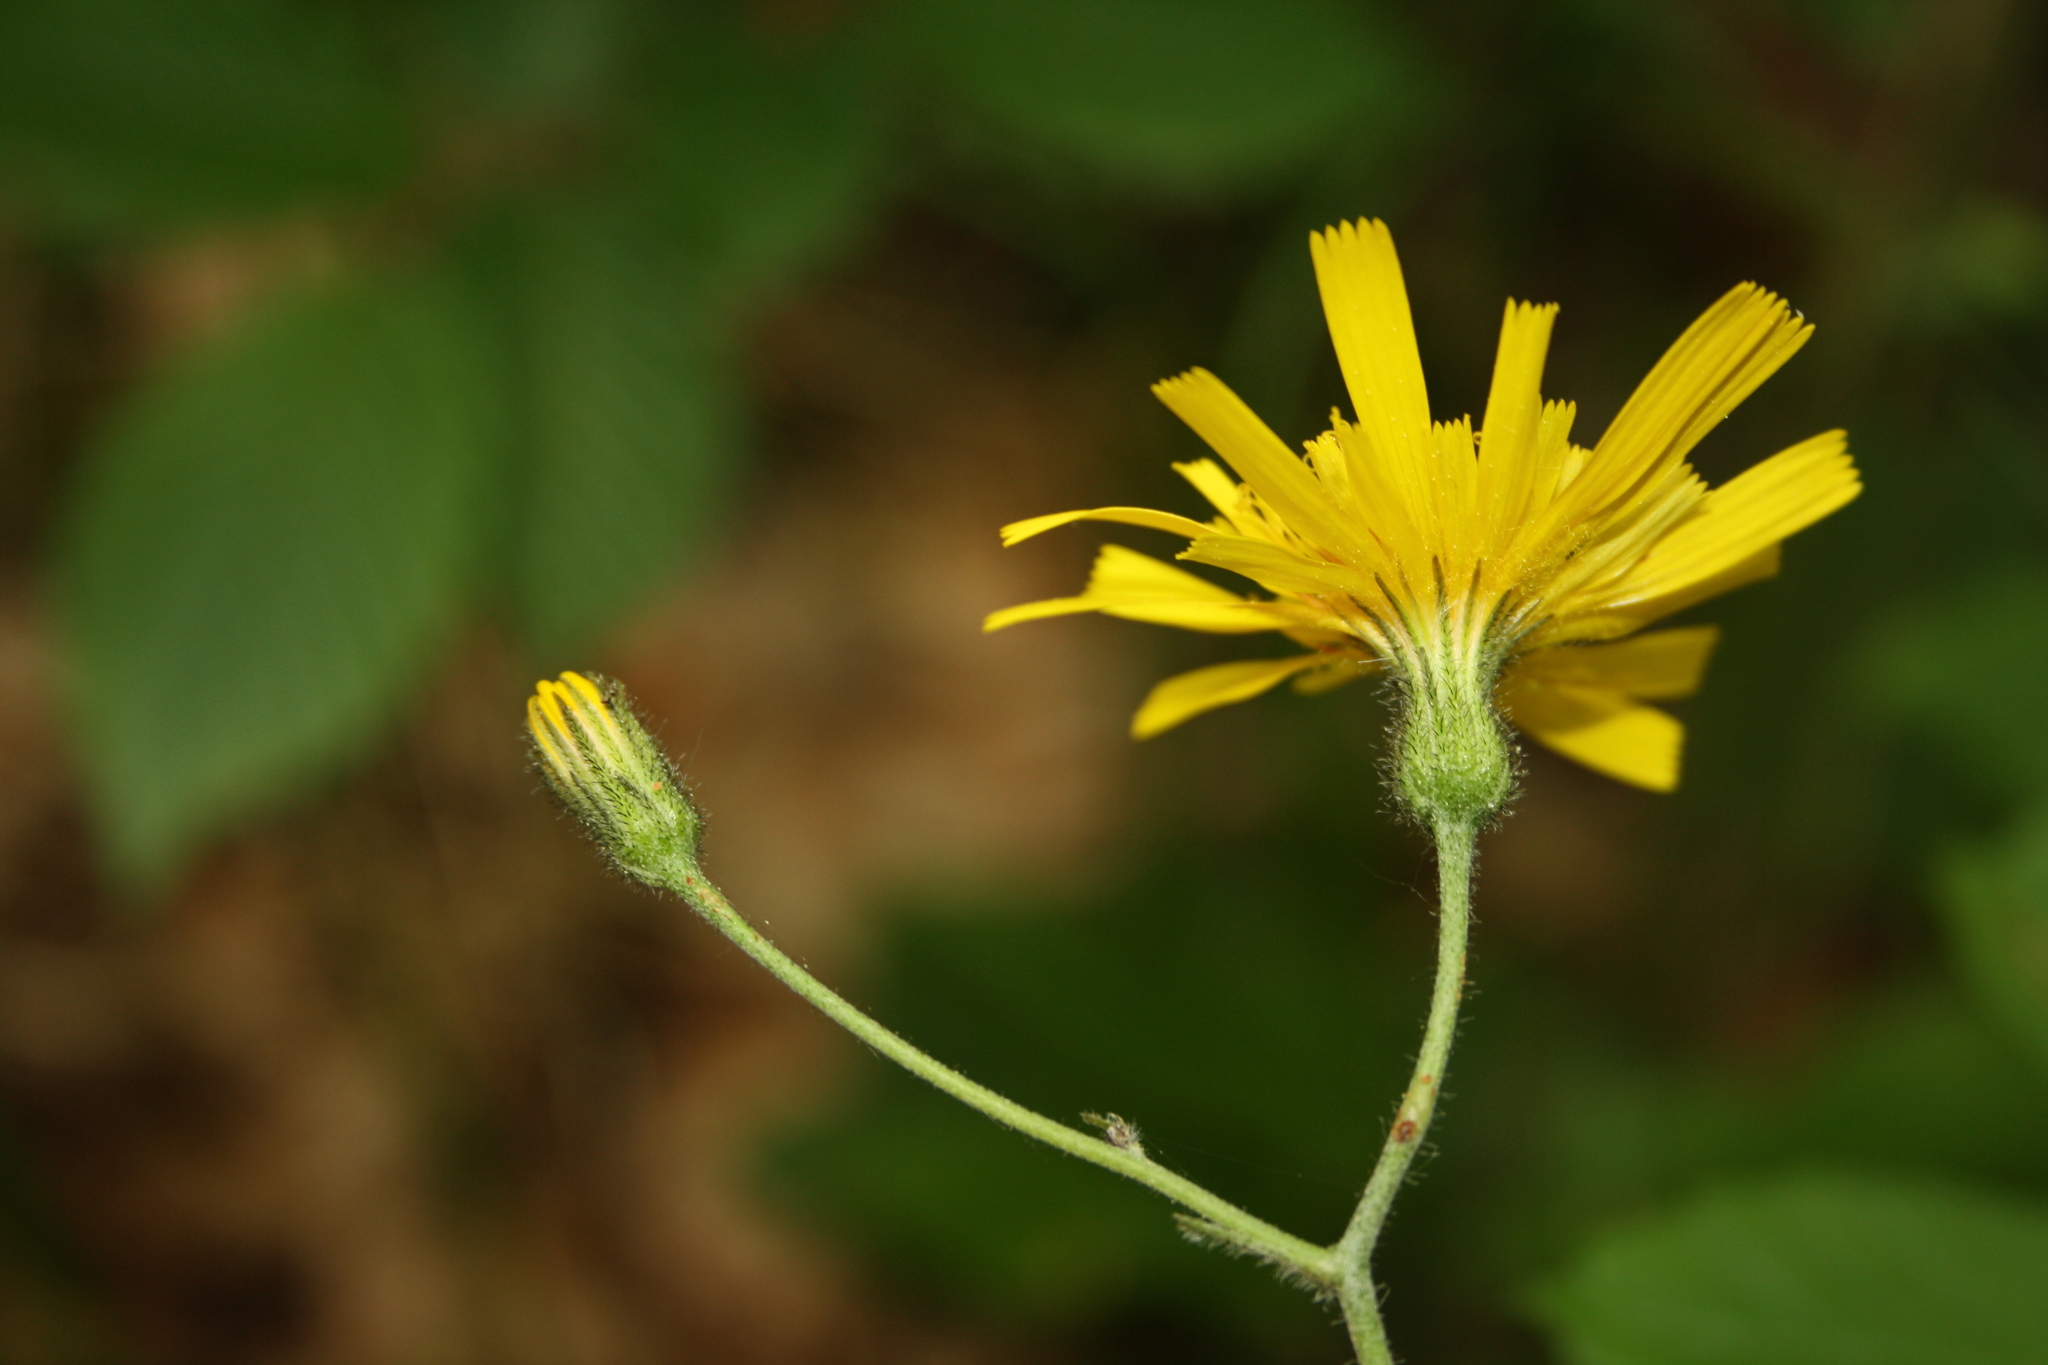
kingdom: Plantae
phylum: Tracheophyta
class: Magnoliopsida
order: Asterales
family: Asteraceae
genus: Hieracium
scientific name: Hieracium murorum
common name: Wall hawkweed
